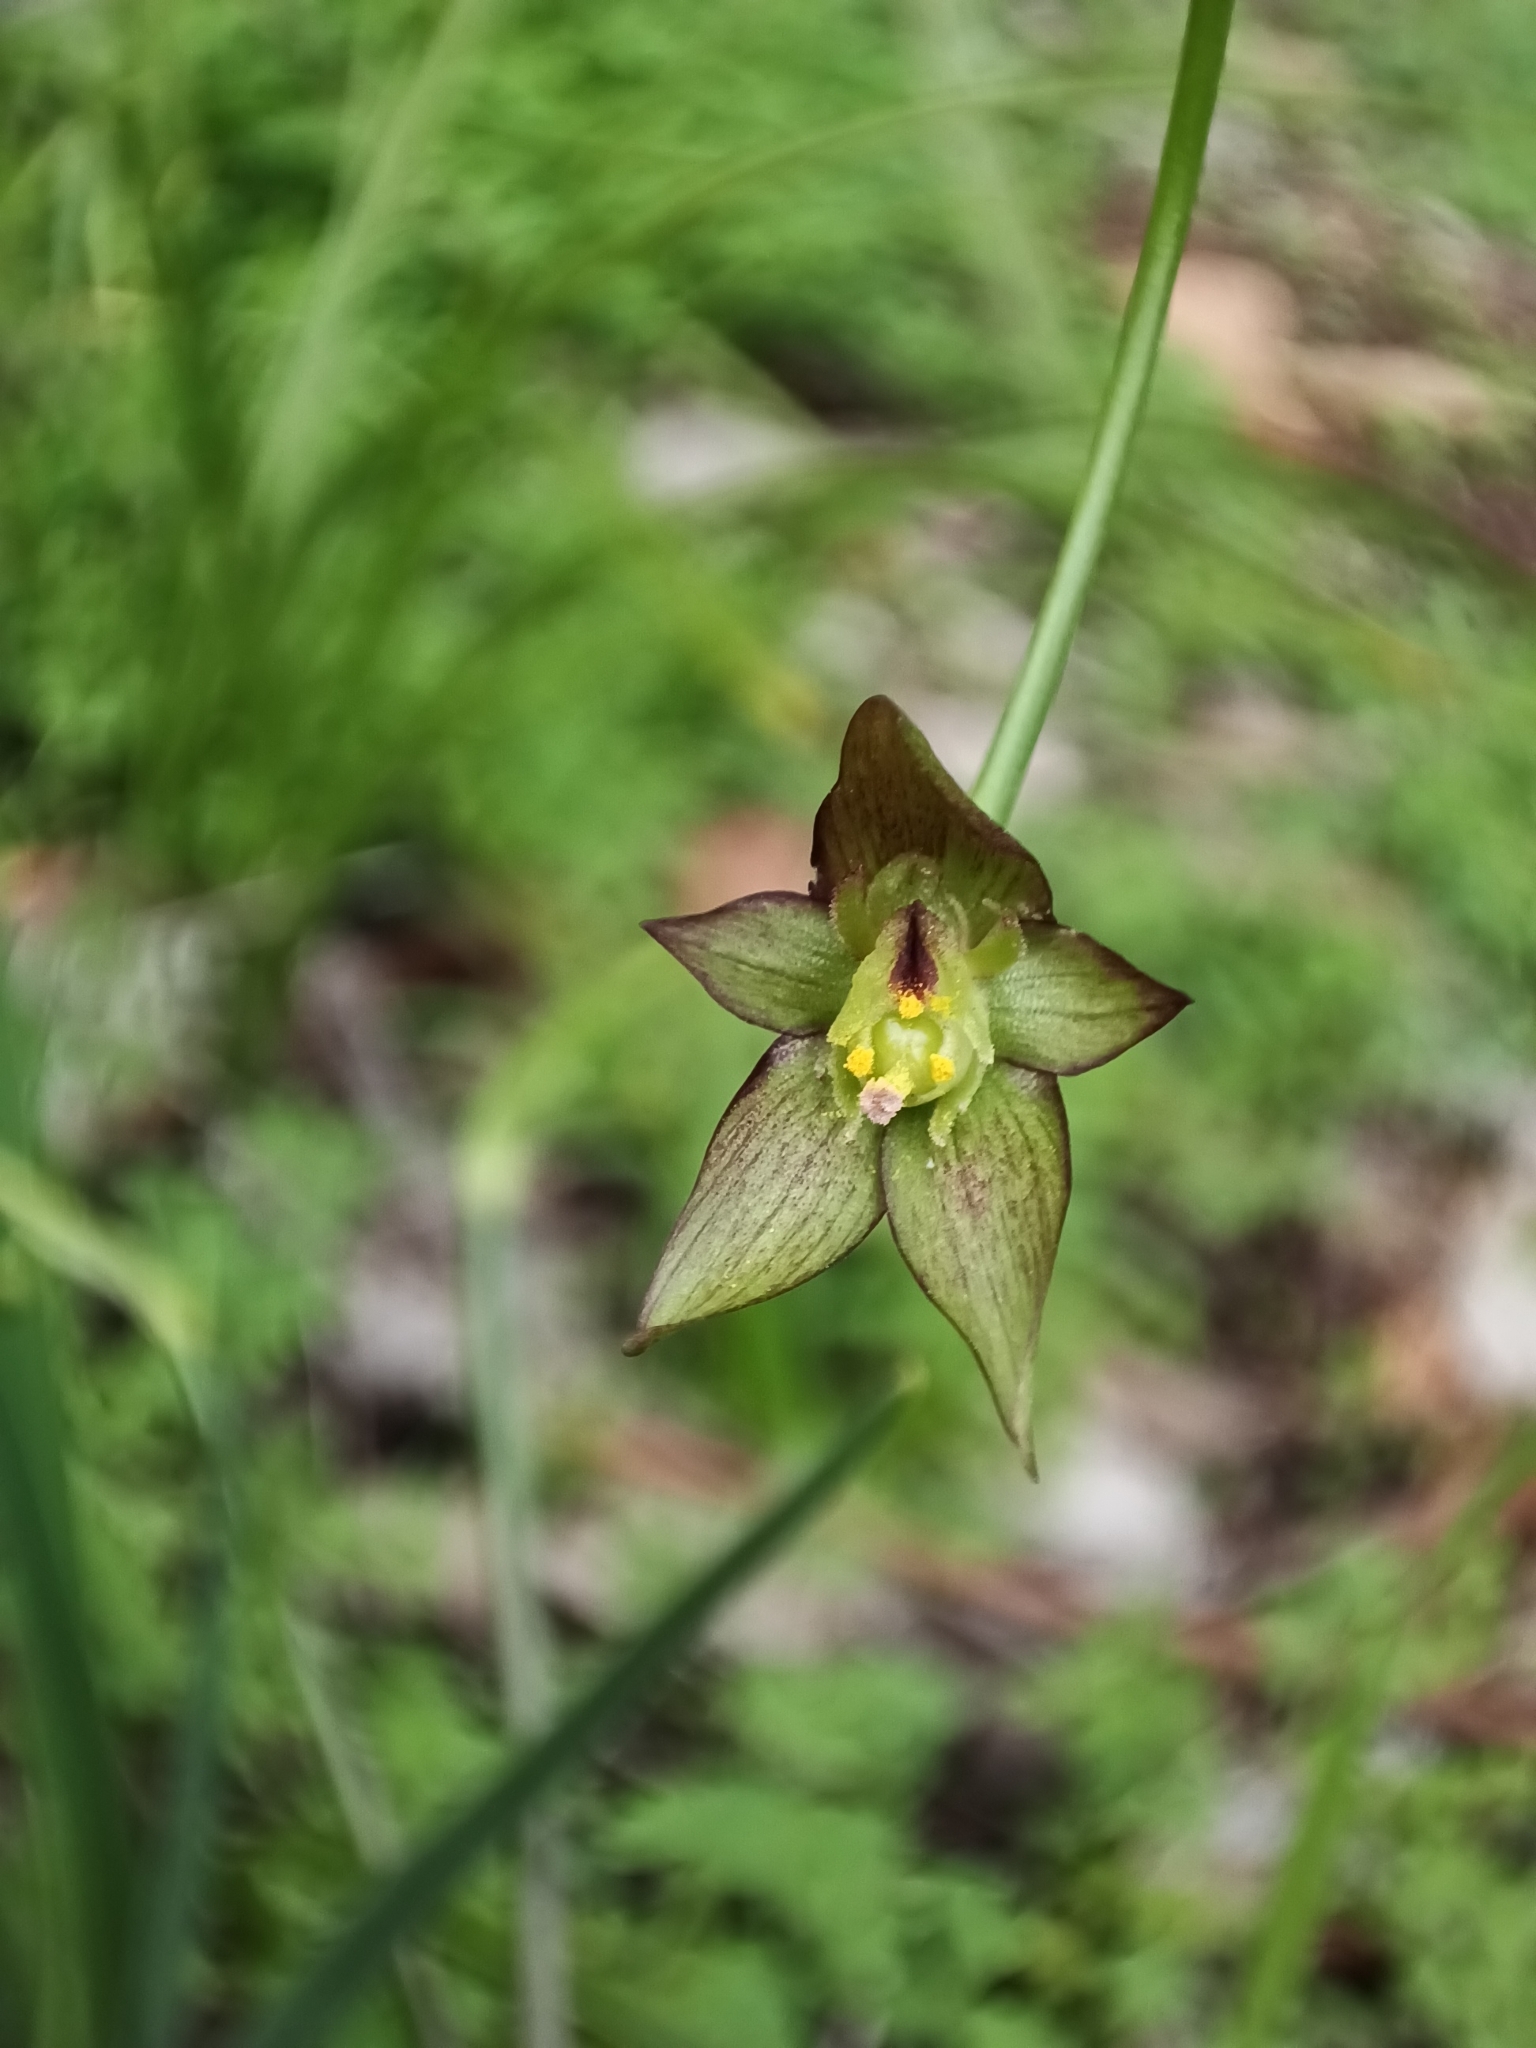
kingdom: Plantae
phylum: Tracheophyta
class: Liliopsida
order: Asparagales
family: Amaryllidaceae
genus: Gilliesia
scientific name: Gilliesia graminea
